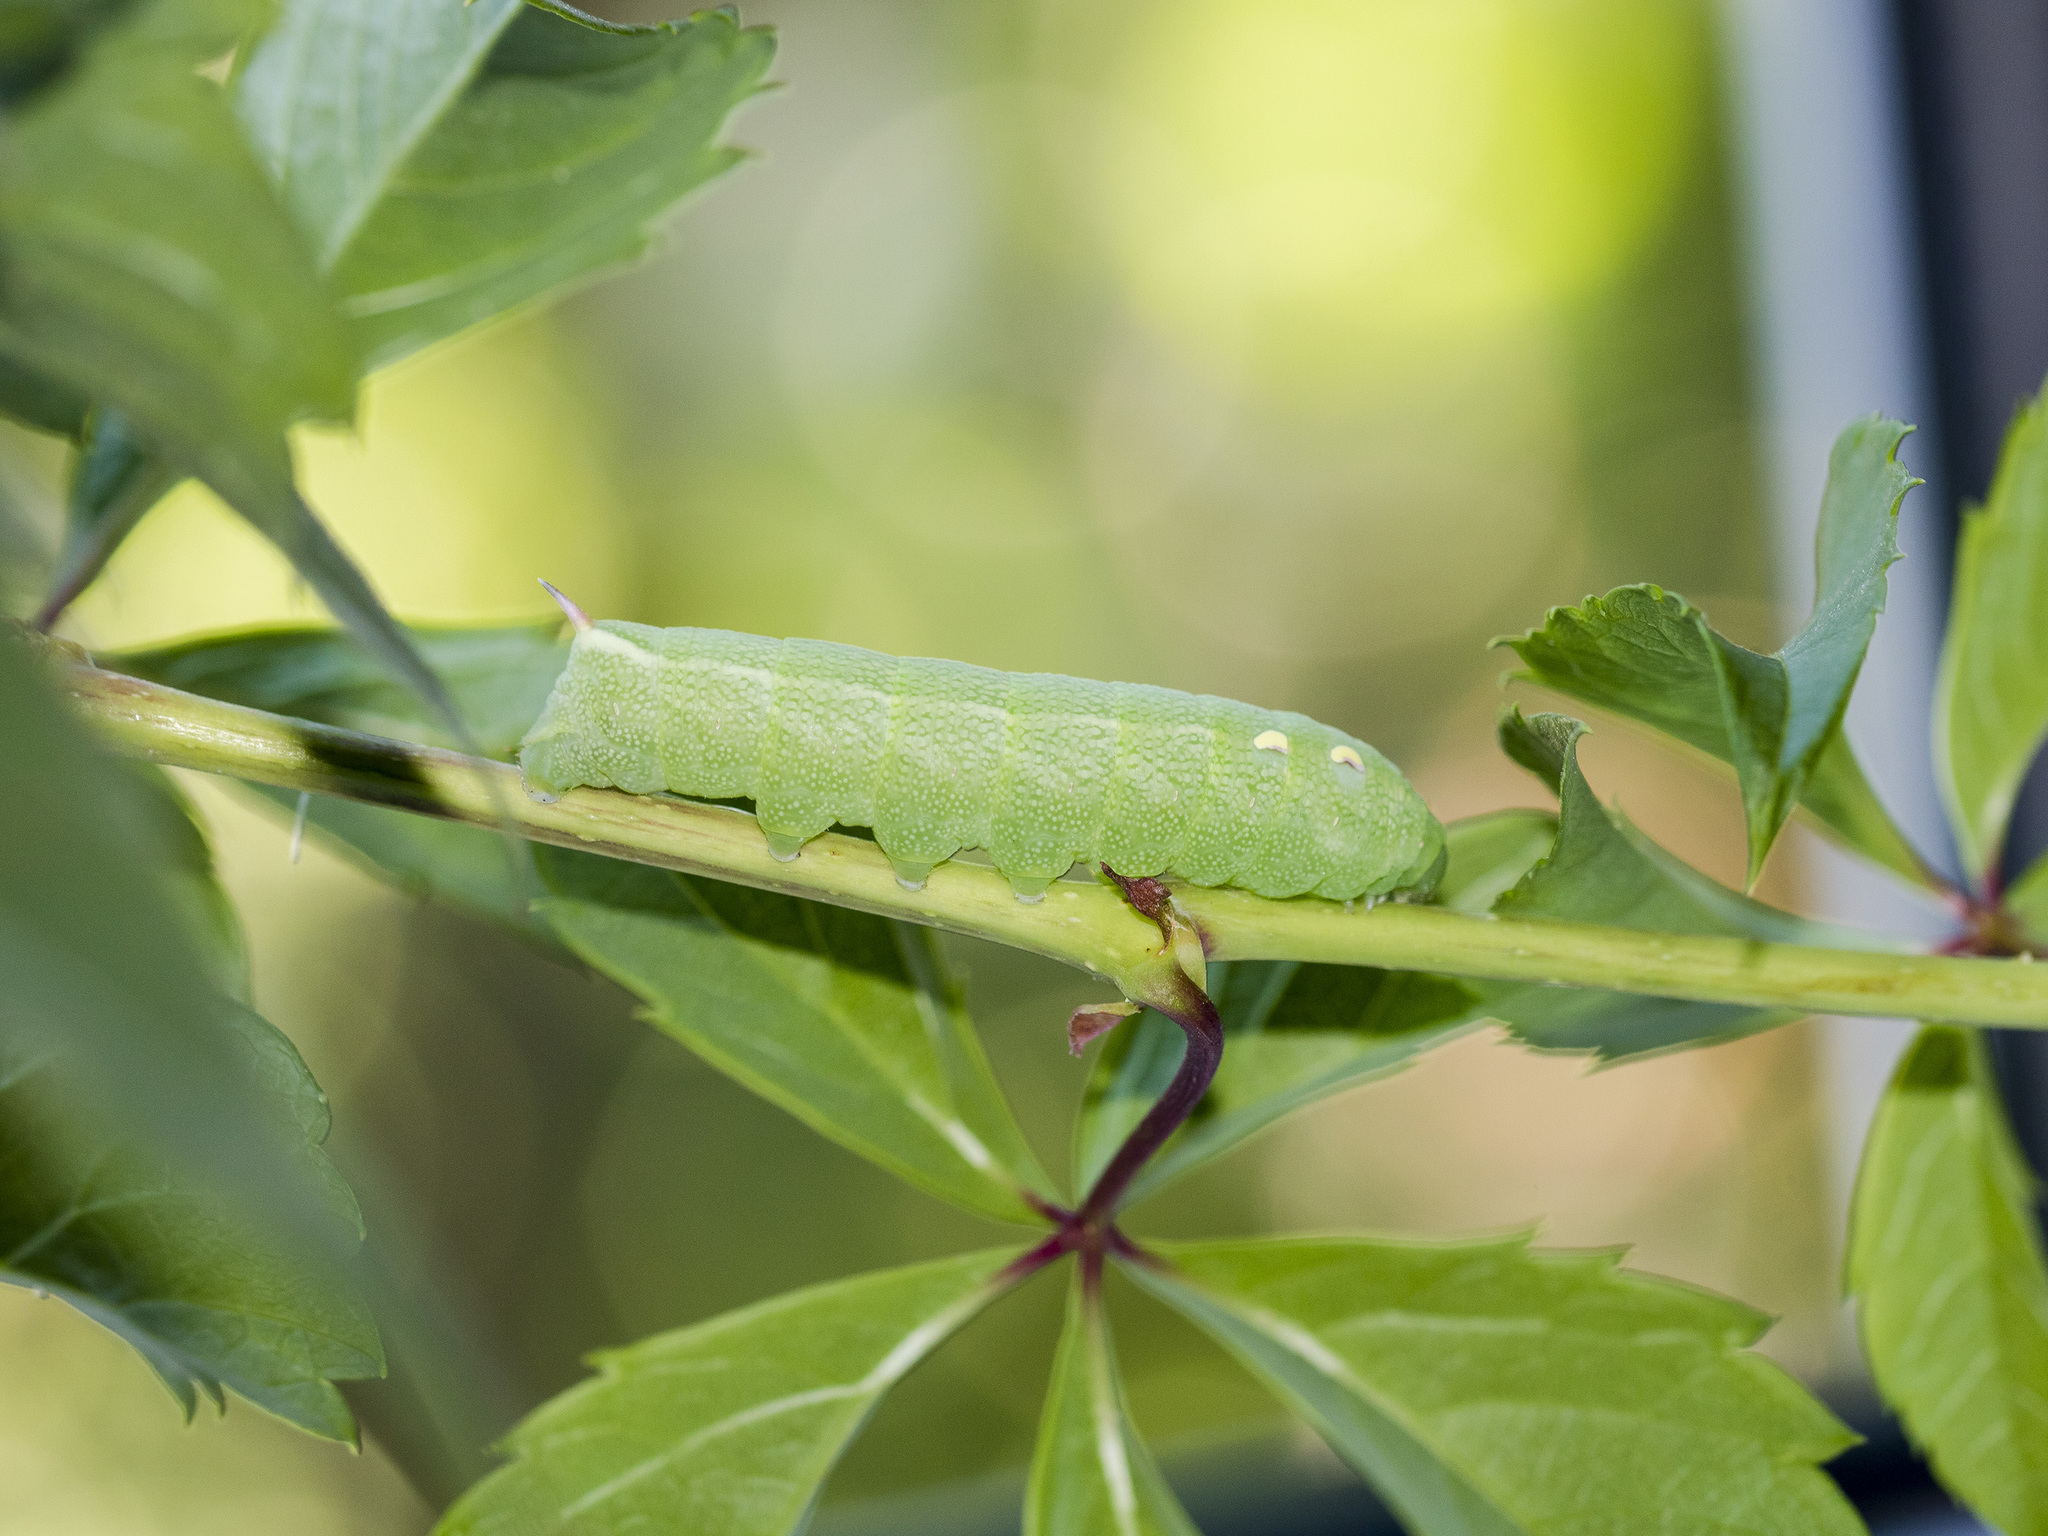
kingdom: Animalia
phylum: Arthropoda
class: Insecta
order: Lepidoptera
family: Sphingidae
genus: Deilephila
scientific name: Deilephila elpenor
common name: Elephant hawk-moth
